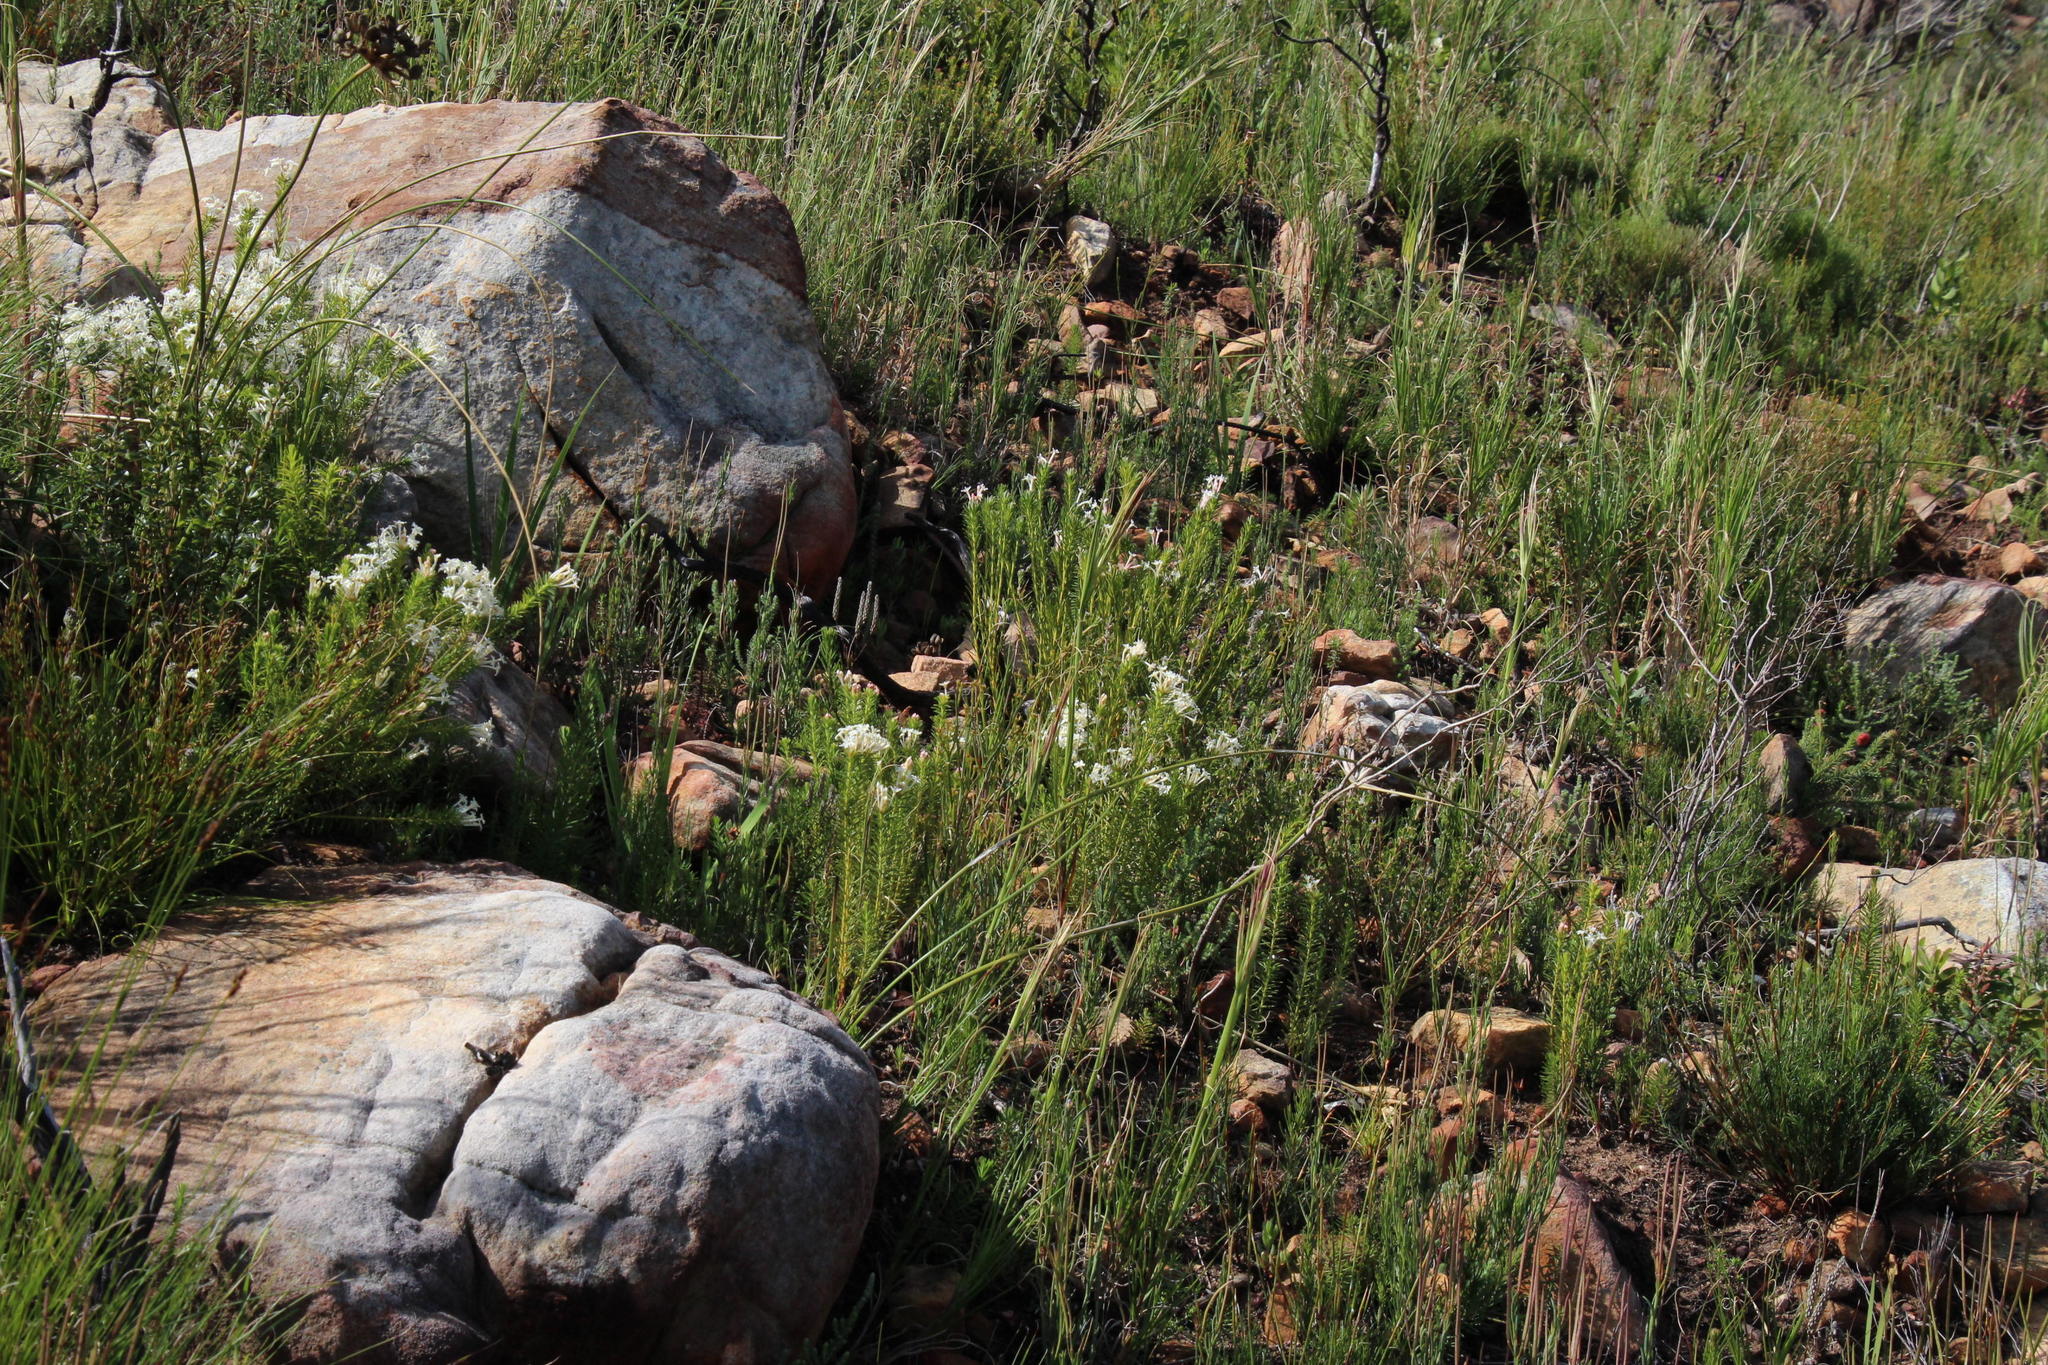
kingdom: Plantae
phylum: Tracheophyta
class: Magnoliopsida
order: Malvales
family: Thymelaeaceae
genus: Gnidia
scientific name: Gnidia pinifolia
